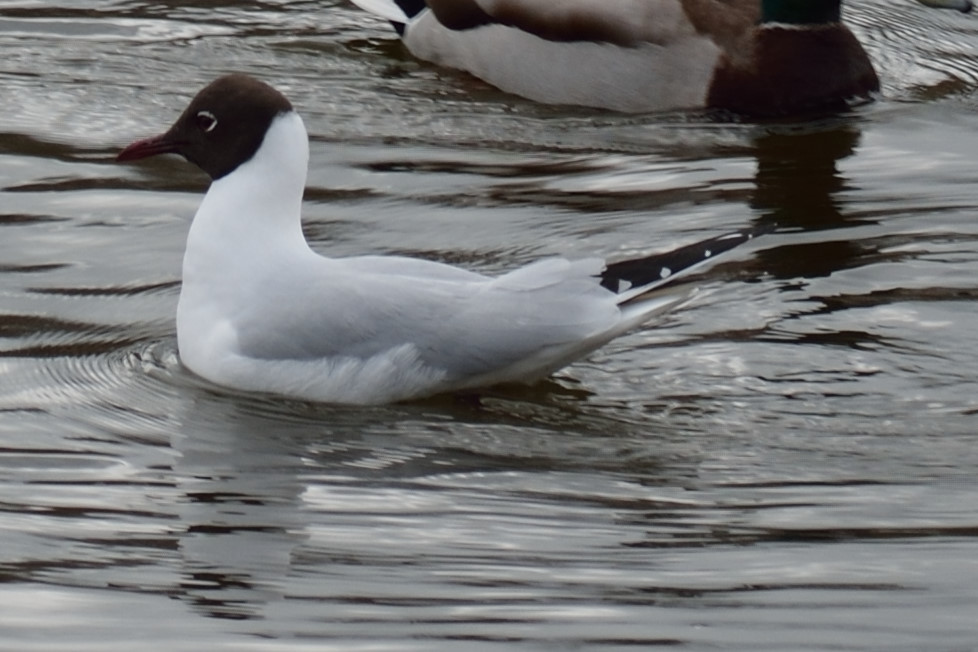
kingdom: Animalia
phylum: Chordata
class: Aves
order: Charadriiformes
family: Laridae
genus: Chroicocephalus
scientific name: Chroicocephalus ridibundus
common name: Black-headed gull
